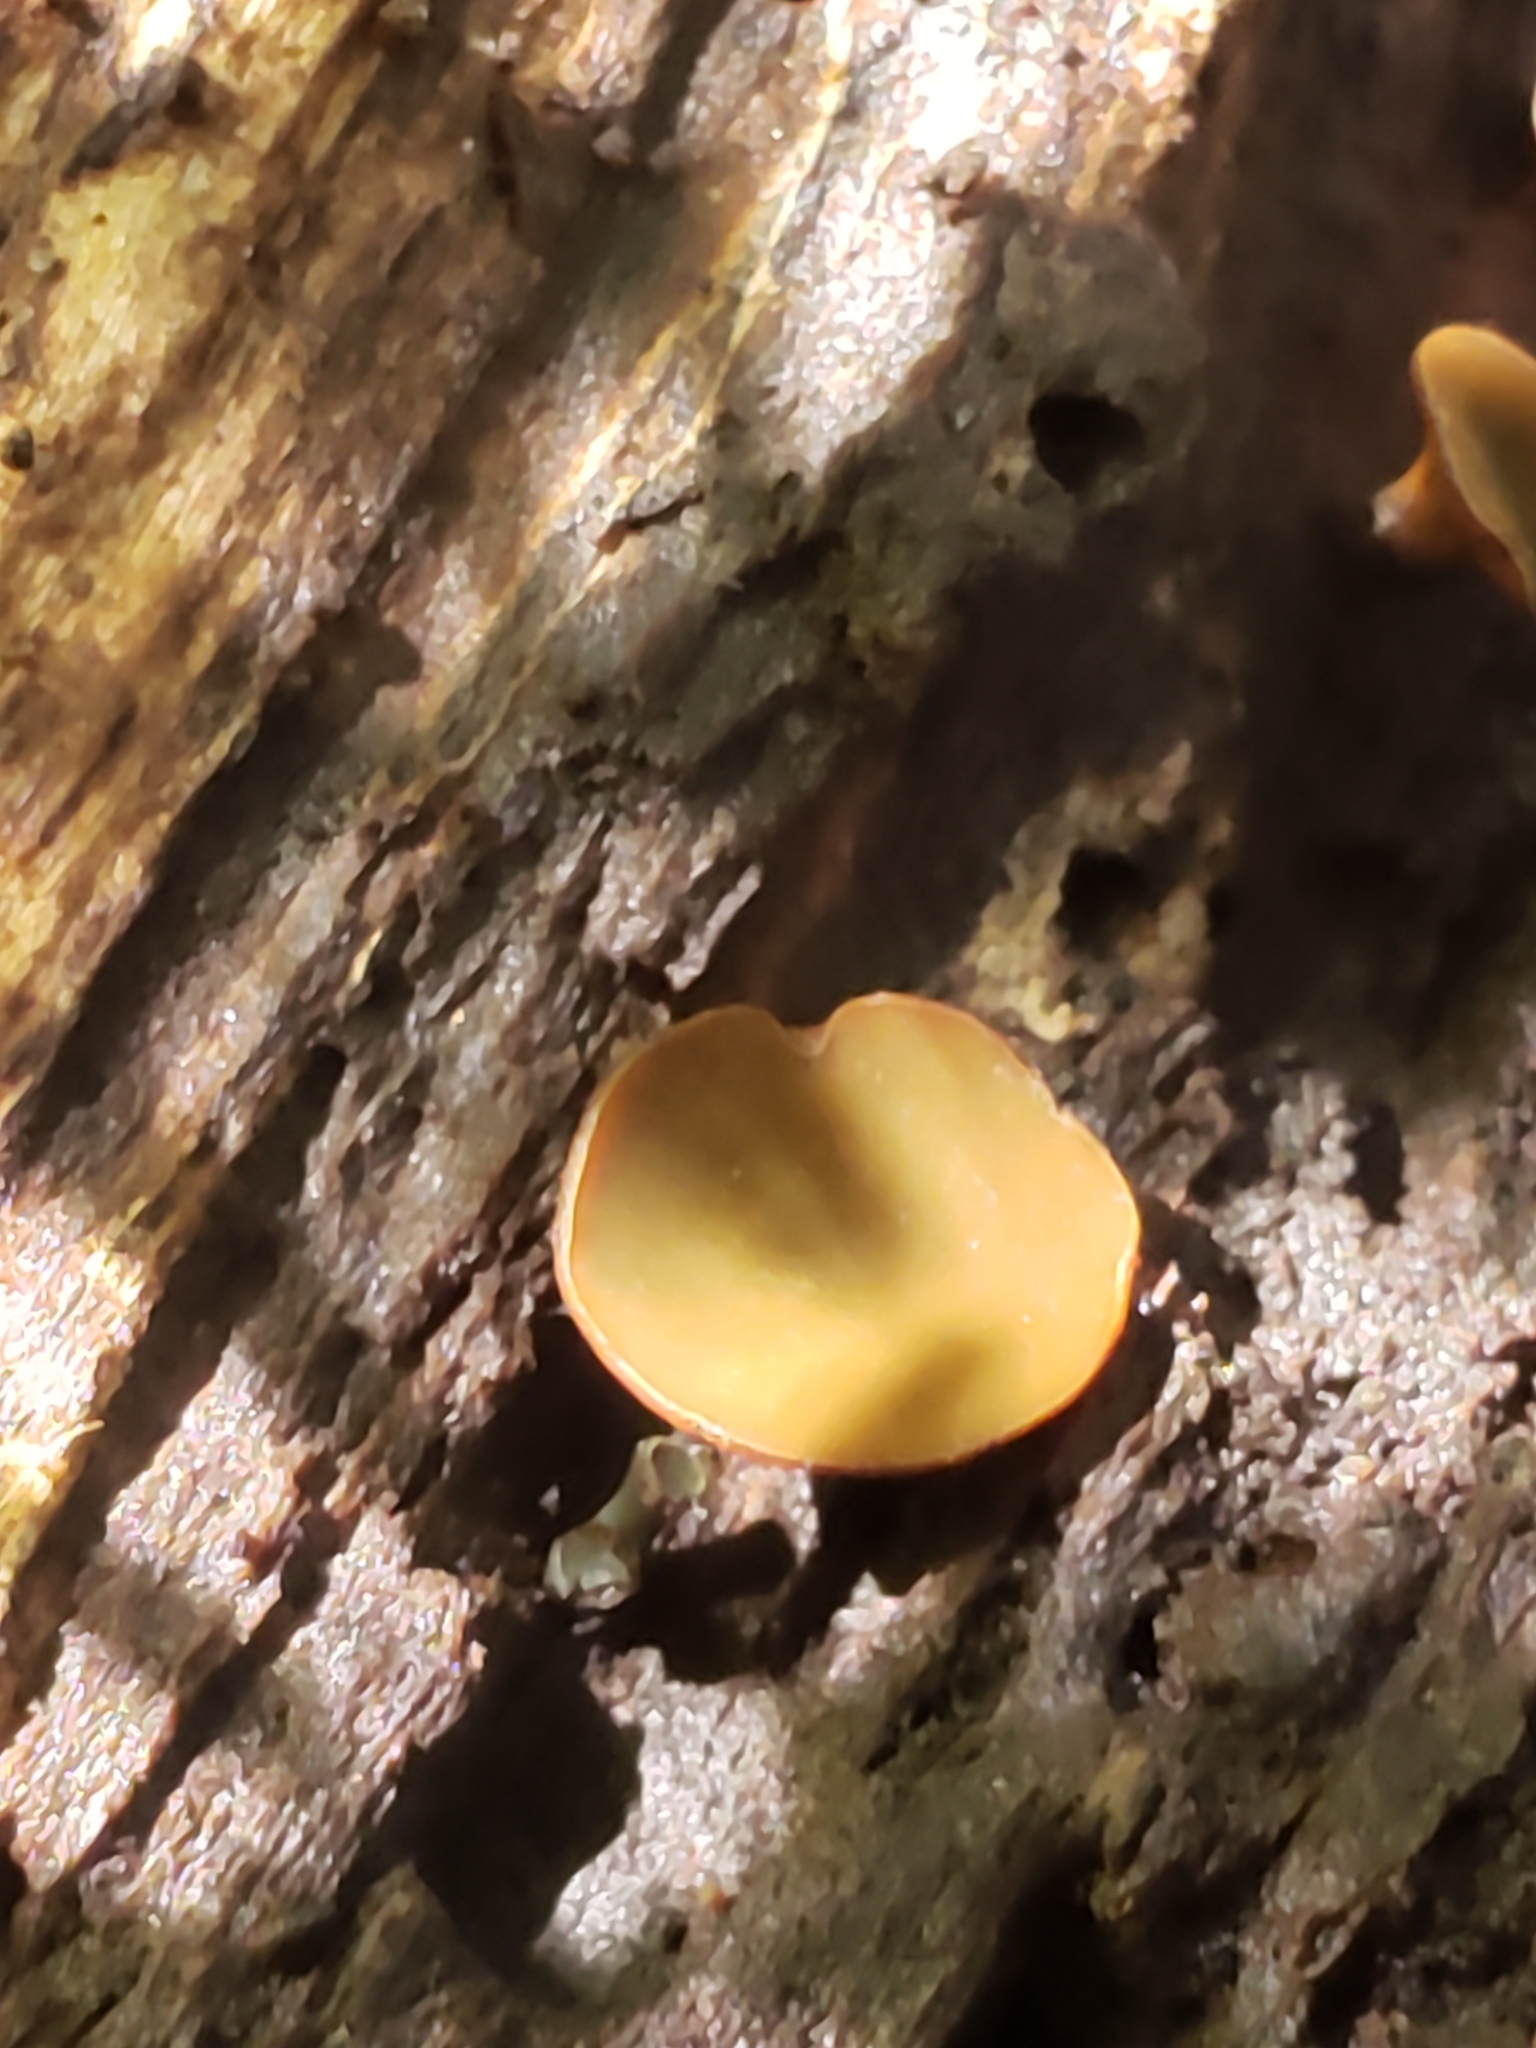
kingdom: Fungi
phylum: Ascomycota
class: Leotiomycetes
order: Helotiales
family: Cenangiaceae
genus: Chlorencoelia
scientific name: Chlorencoelia
